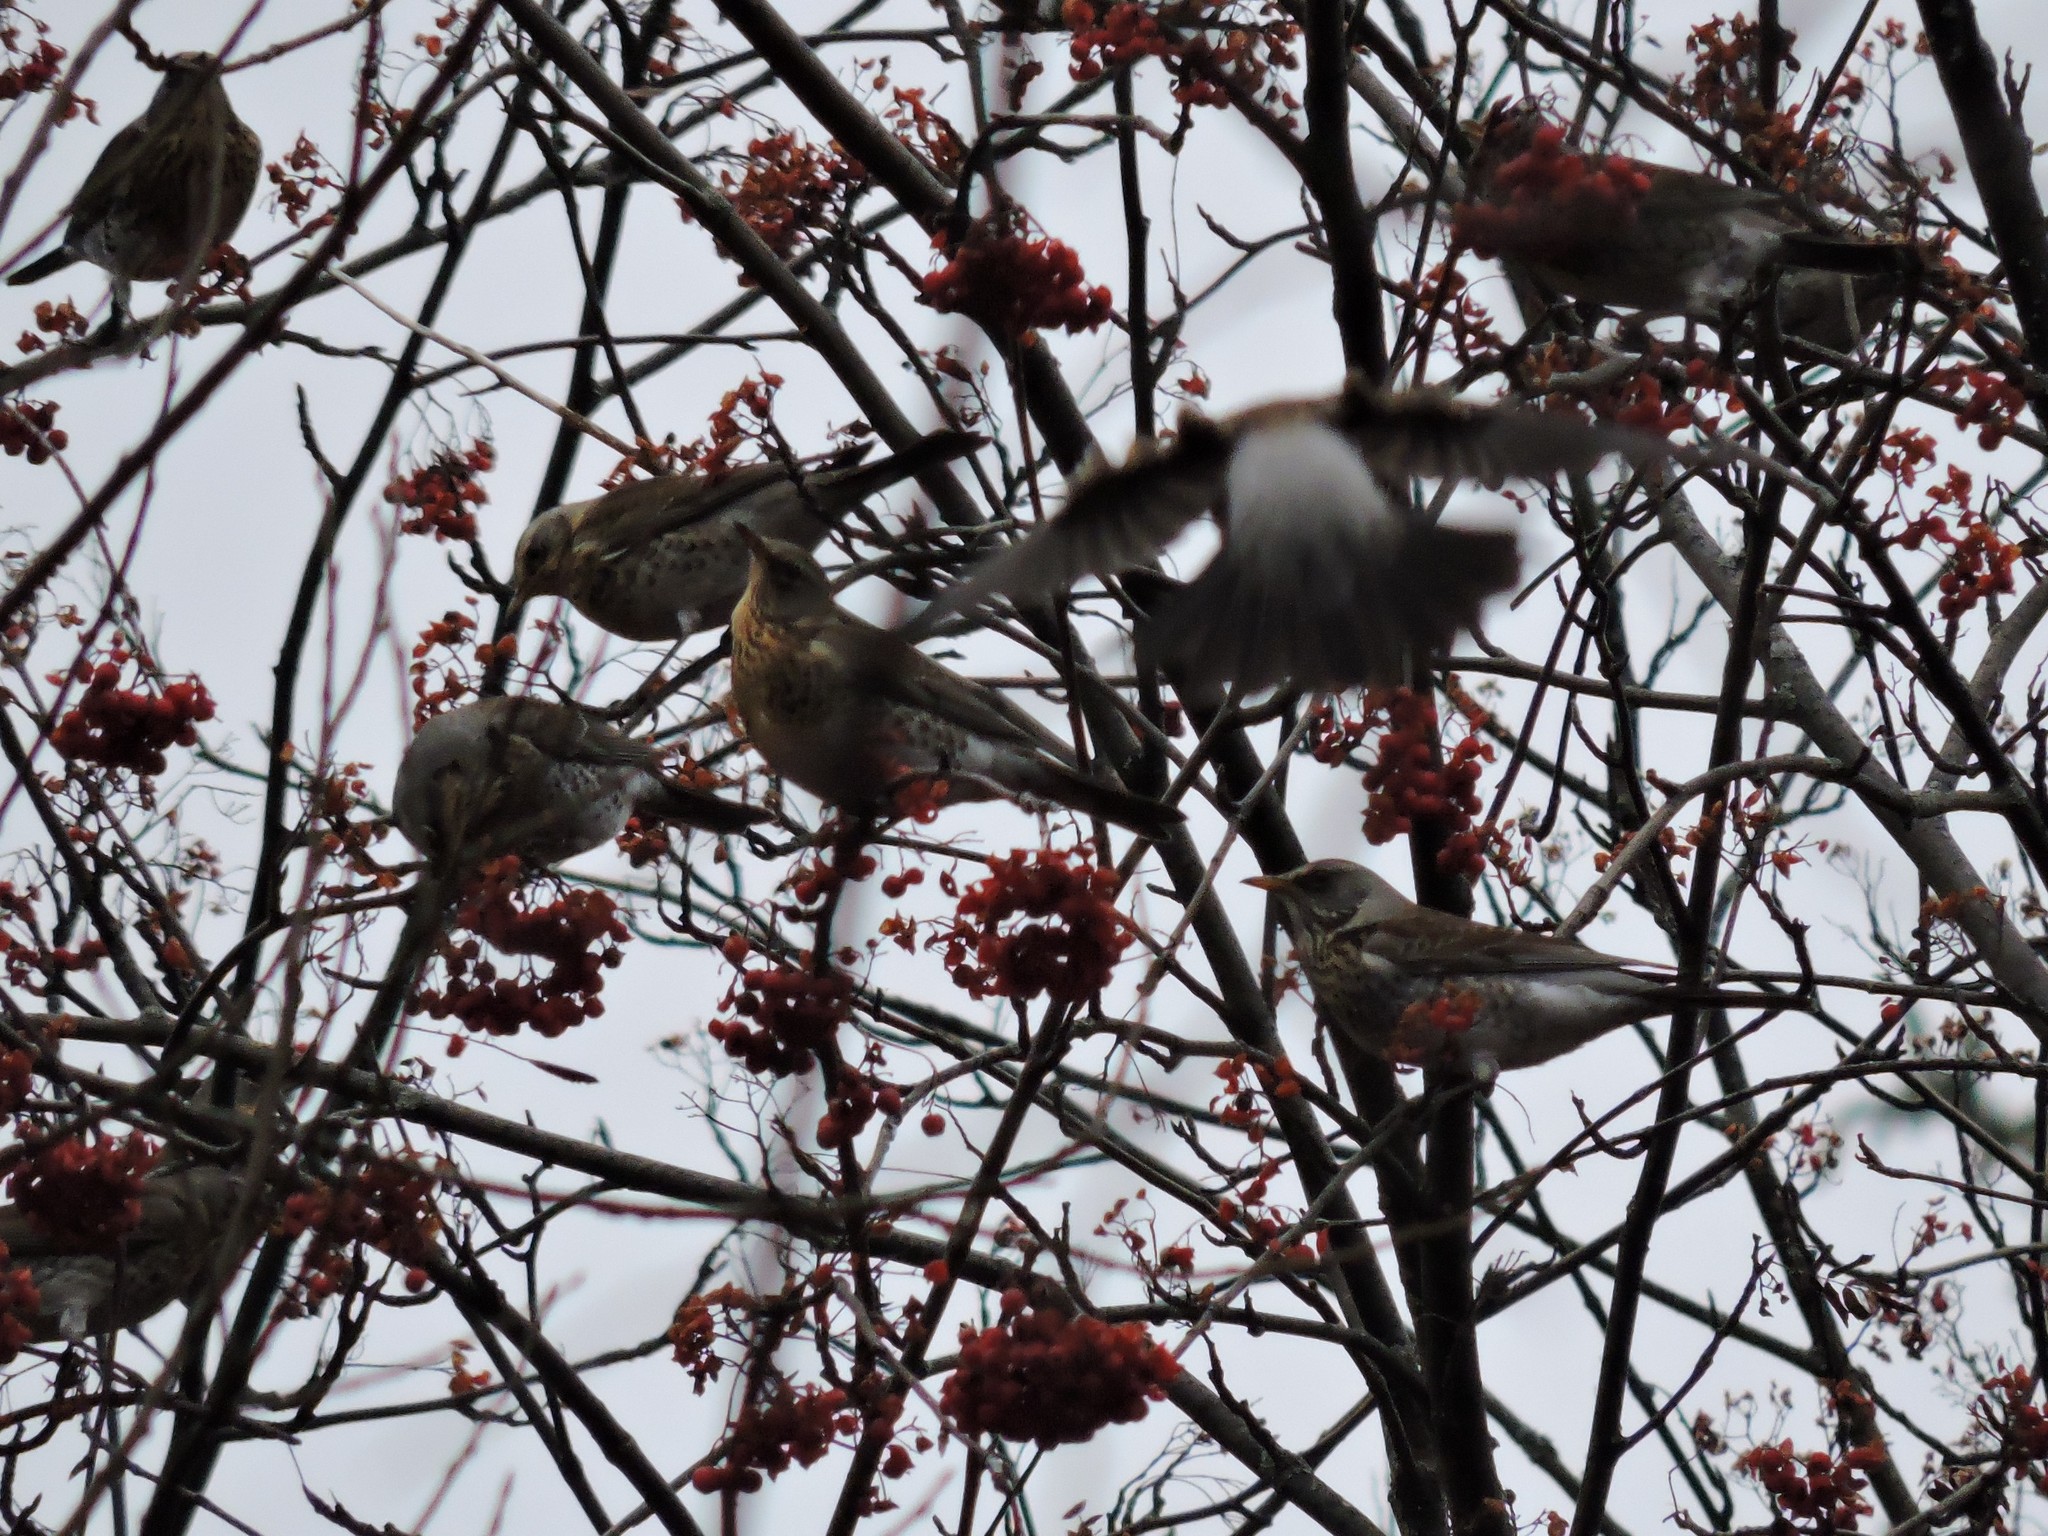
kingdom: Animalia
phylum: Chordata
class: Aves
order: Passeriformes
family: Turdidae
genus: Turdus
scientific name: Turdus pilaris
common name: Fieldfare
